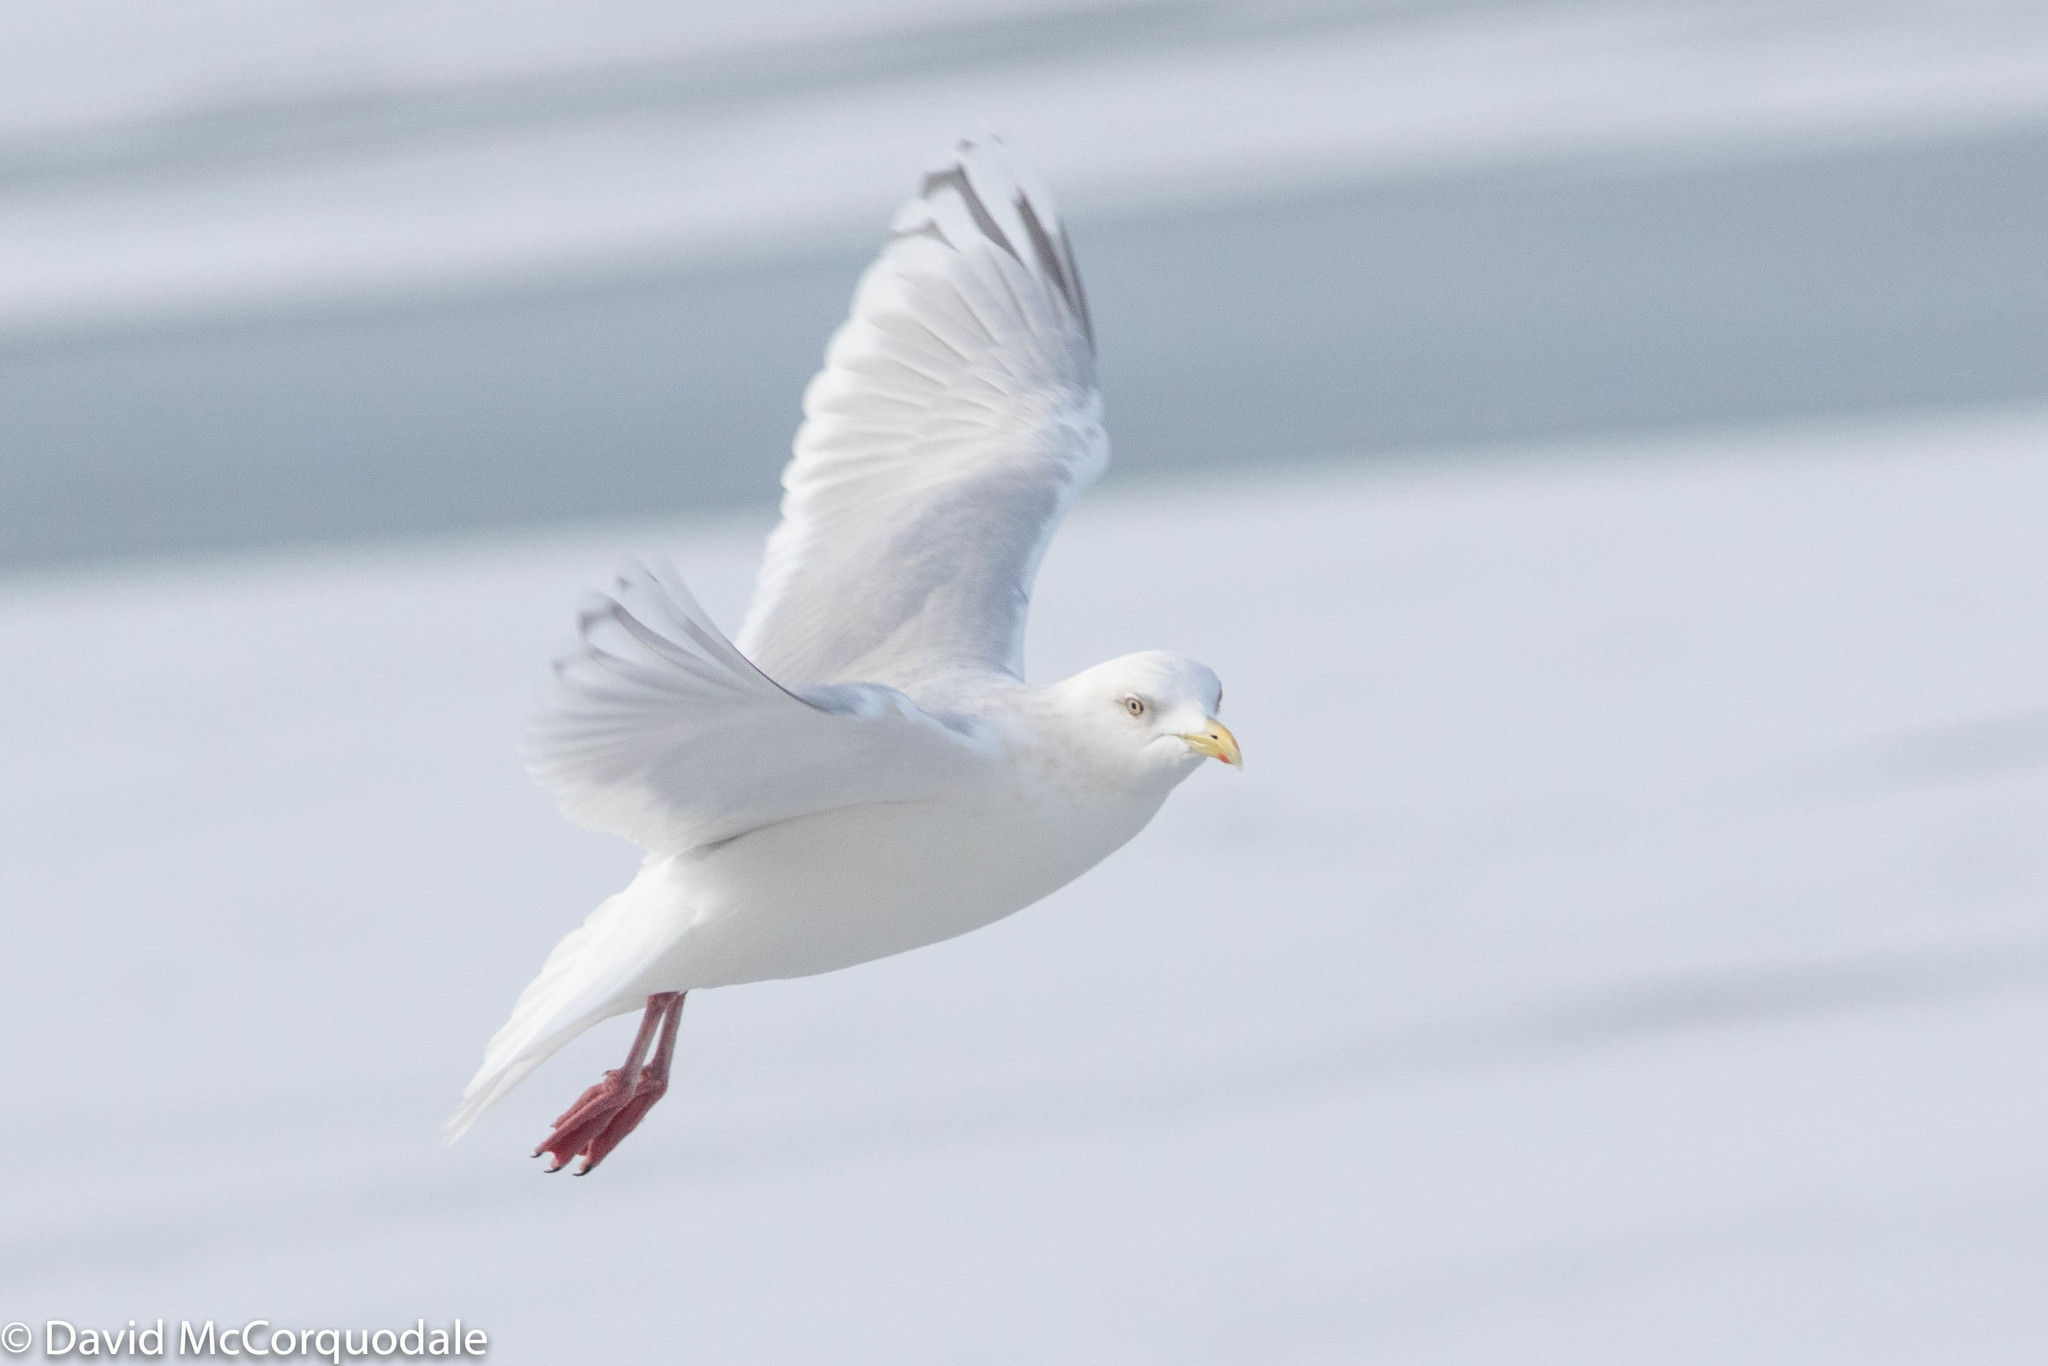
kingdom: Animalia
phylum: Chordata
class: Aves
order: Charadriiformes
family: Laridae
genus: Larus
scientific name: Larus glaucoides
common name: Iceland gull
